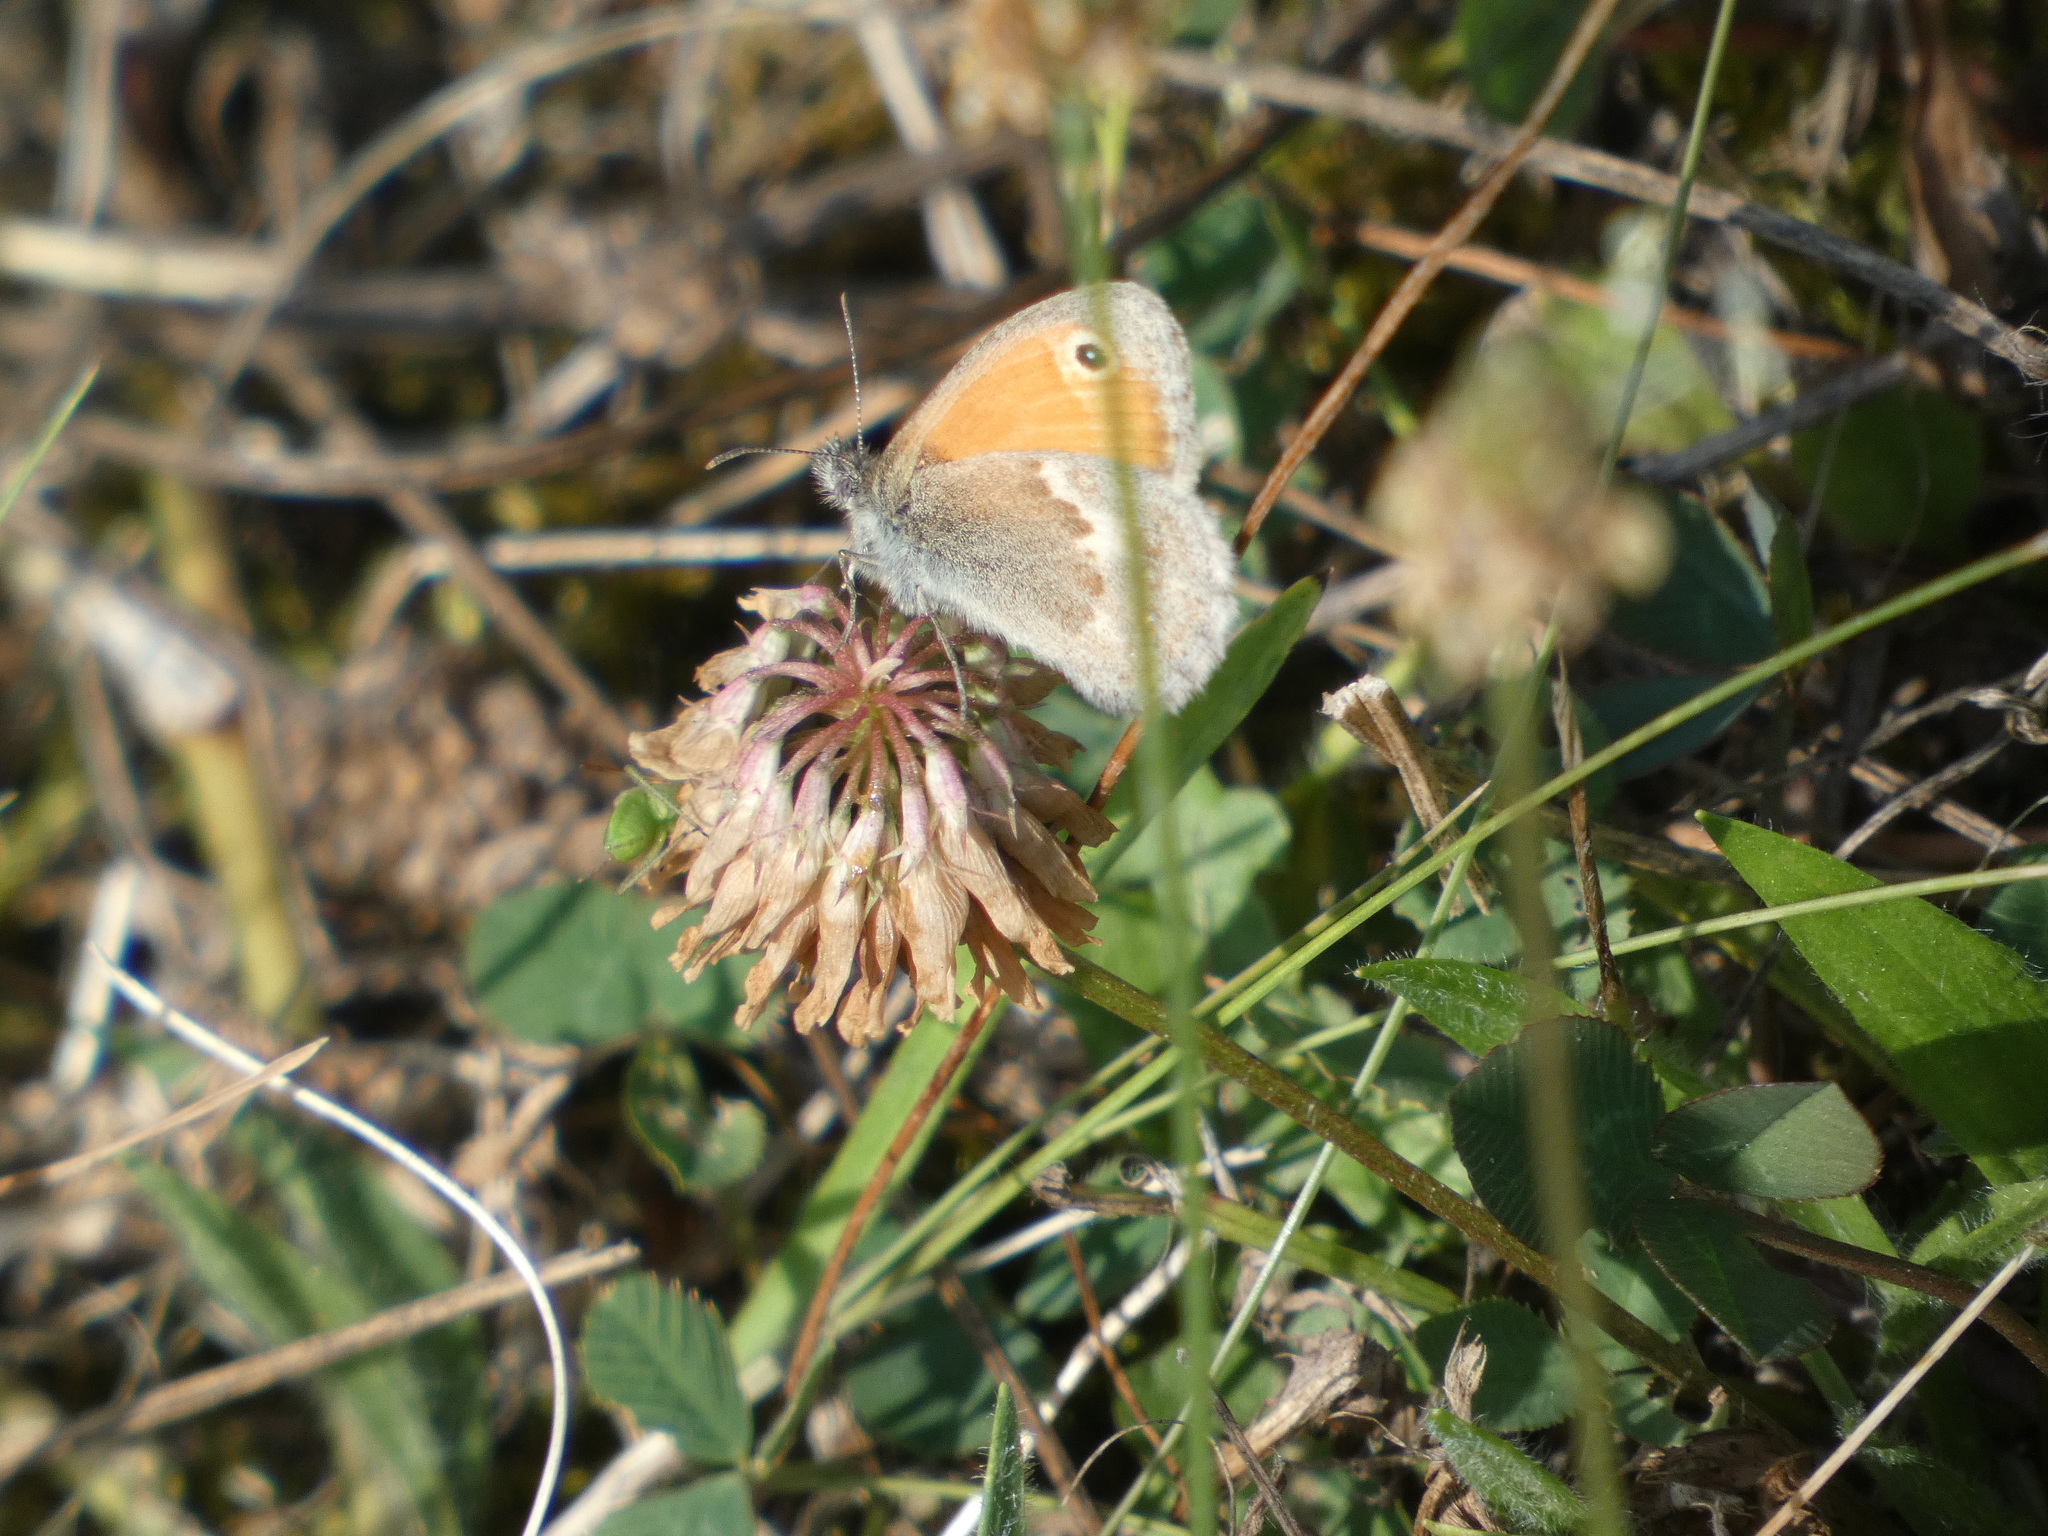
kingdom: Animalia
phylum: Arthropoda
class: Insecta
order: Lepidoptera
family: Nymphalidae
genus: Coenonympha
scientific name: Coenonympha pamphilus
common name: Small heath
